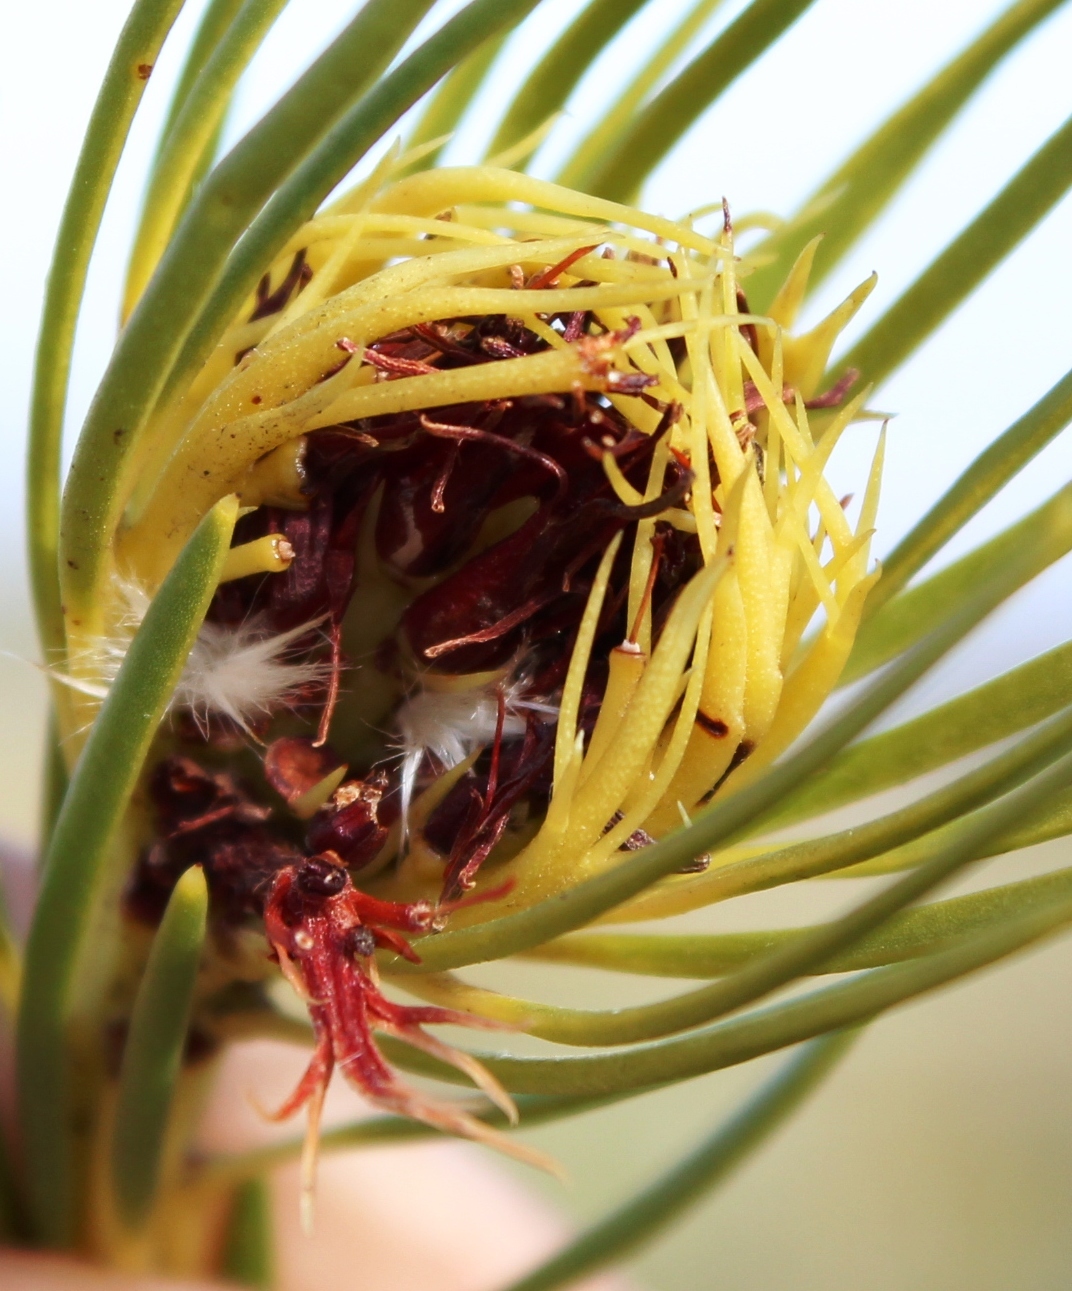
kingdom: Plantae
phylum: Tracheophyta
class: Magnoliopsida
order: Proteales
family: Proteaceae
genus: Aulax
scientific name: Aulax pallasia
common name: Needle-leaf featherbush
